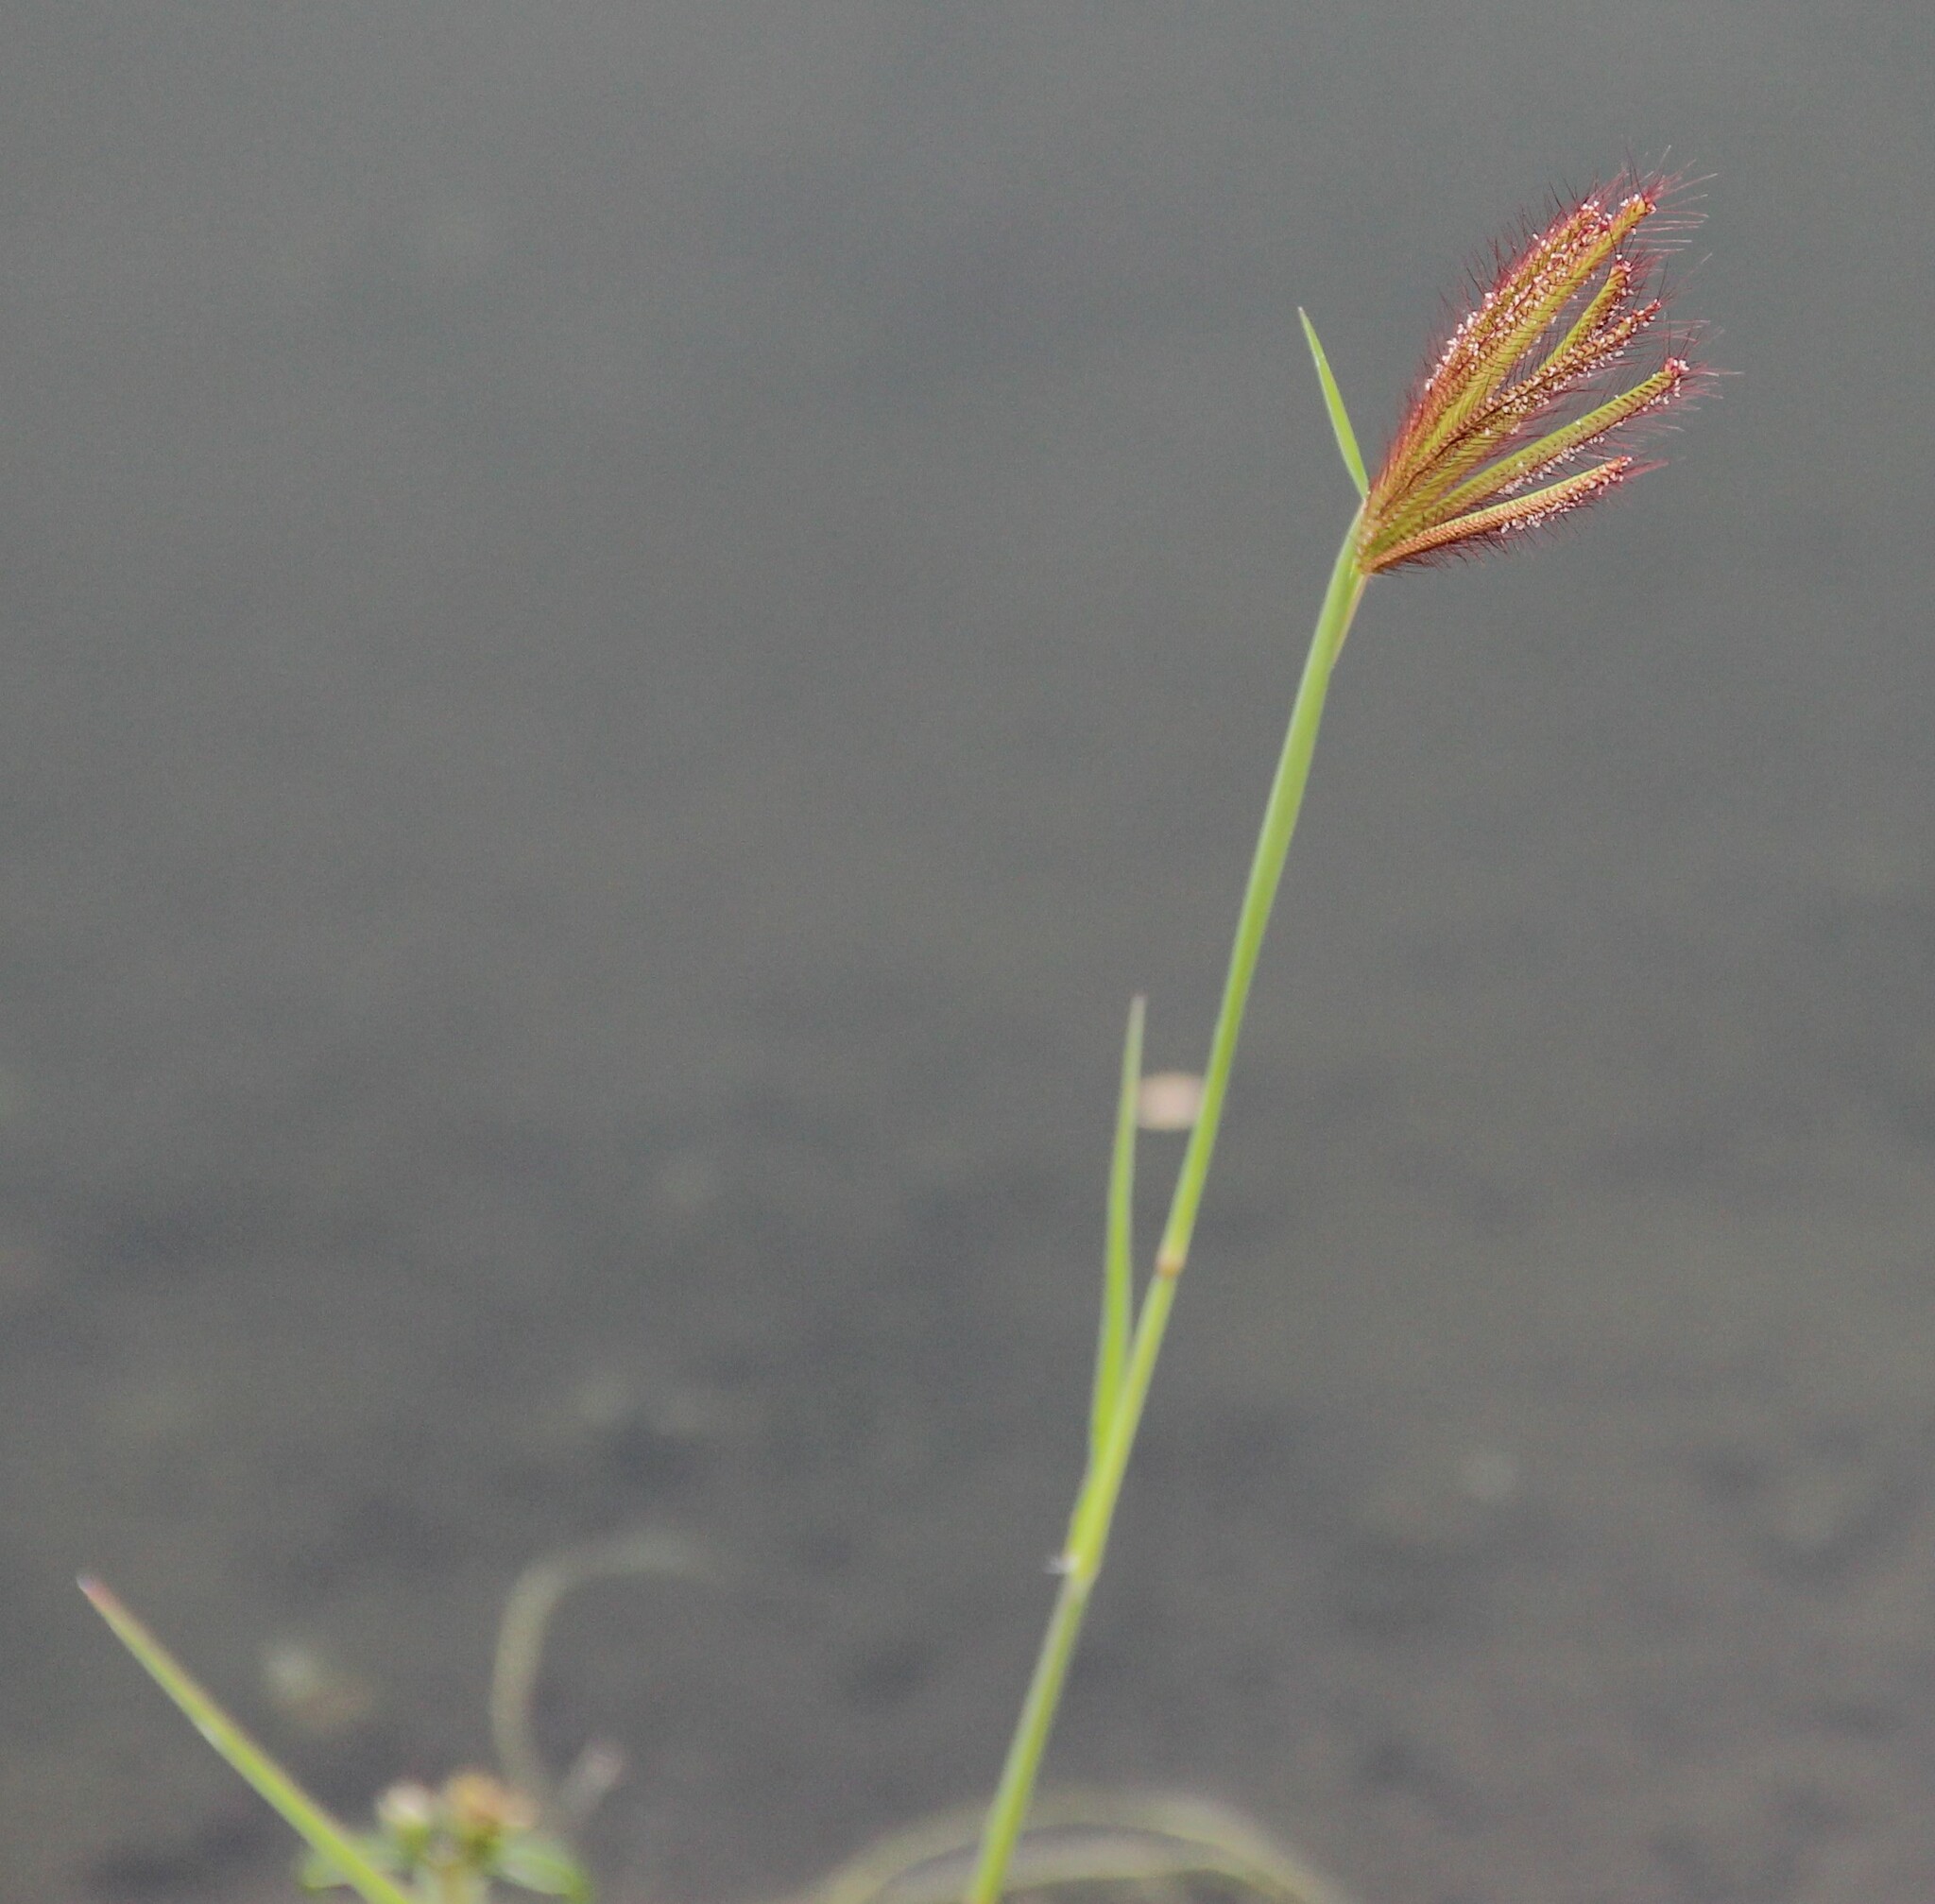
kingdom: Plantae
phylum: Tracheophyta
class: Liliopsida
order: Poales
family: Poaceae
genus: Chloris
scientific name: Chloris barbata
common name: Swollen fingergrass
